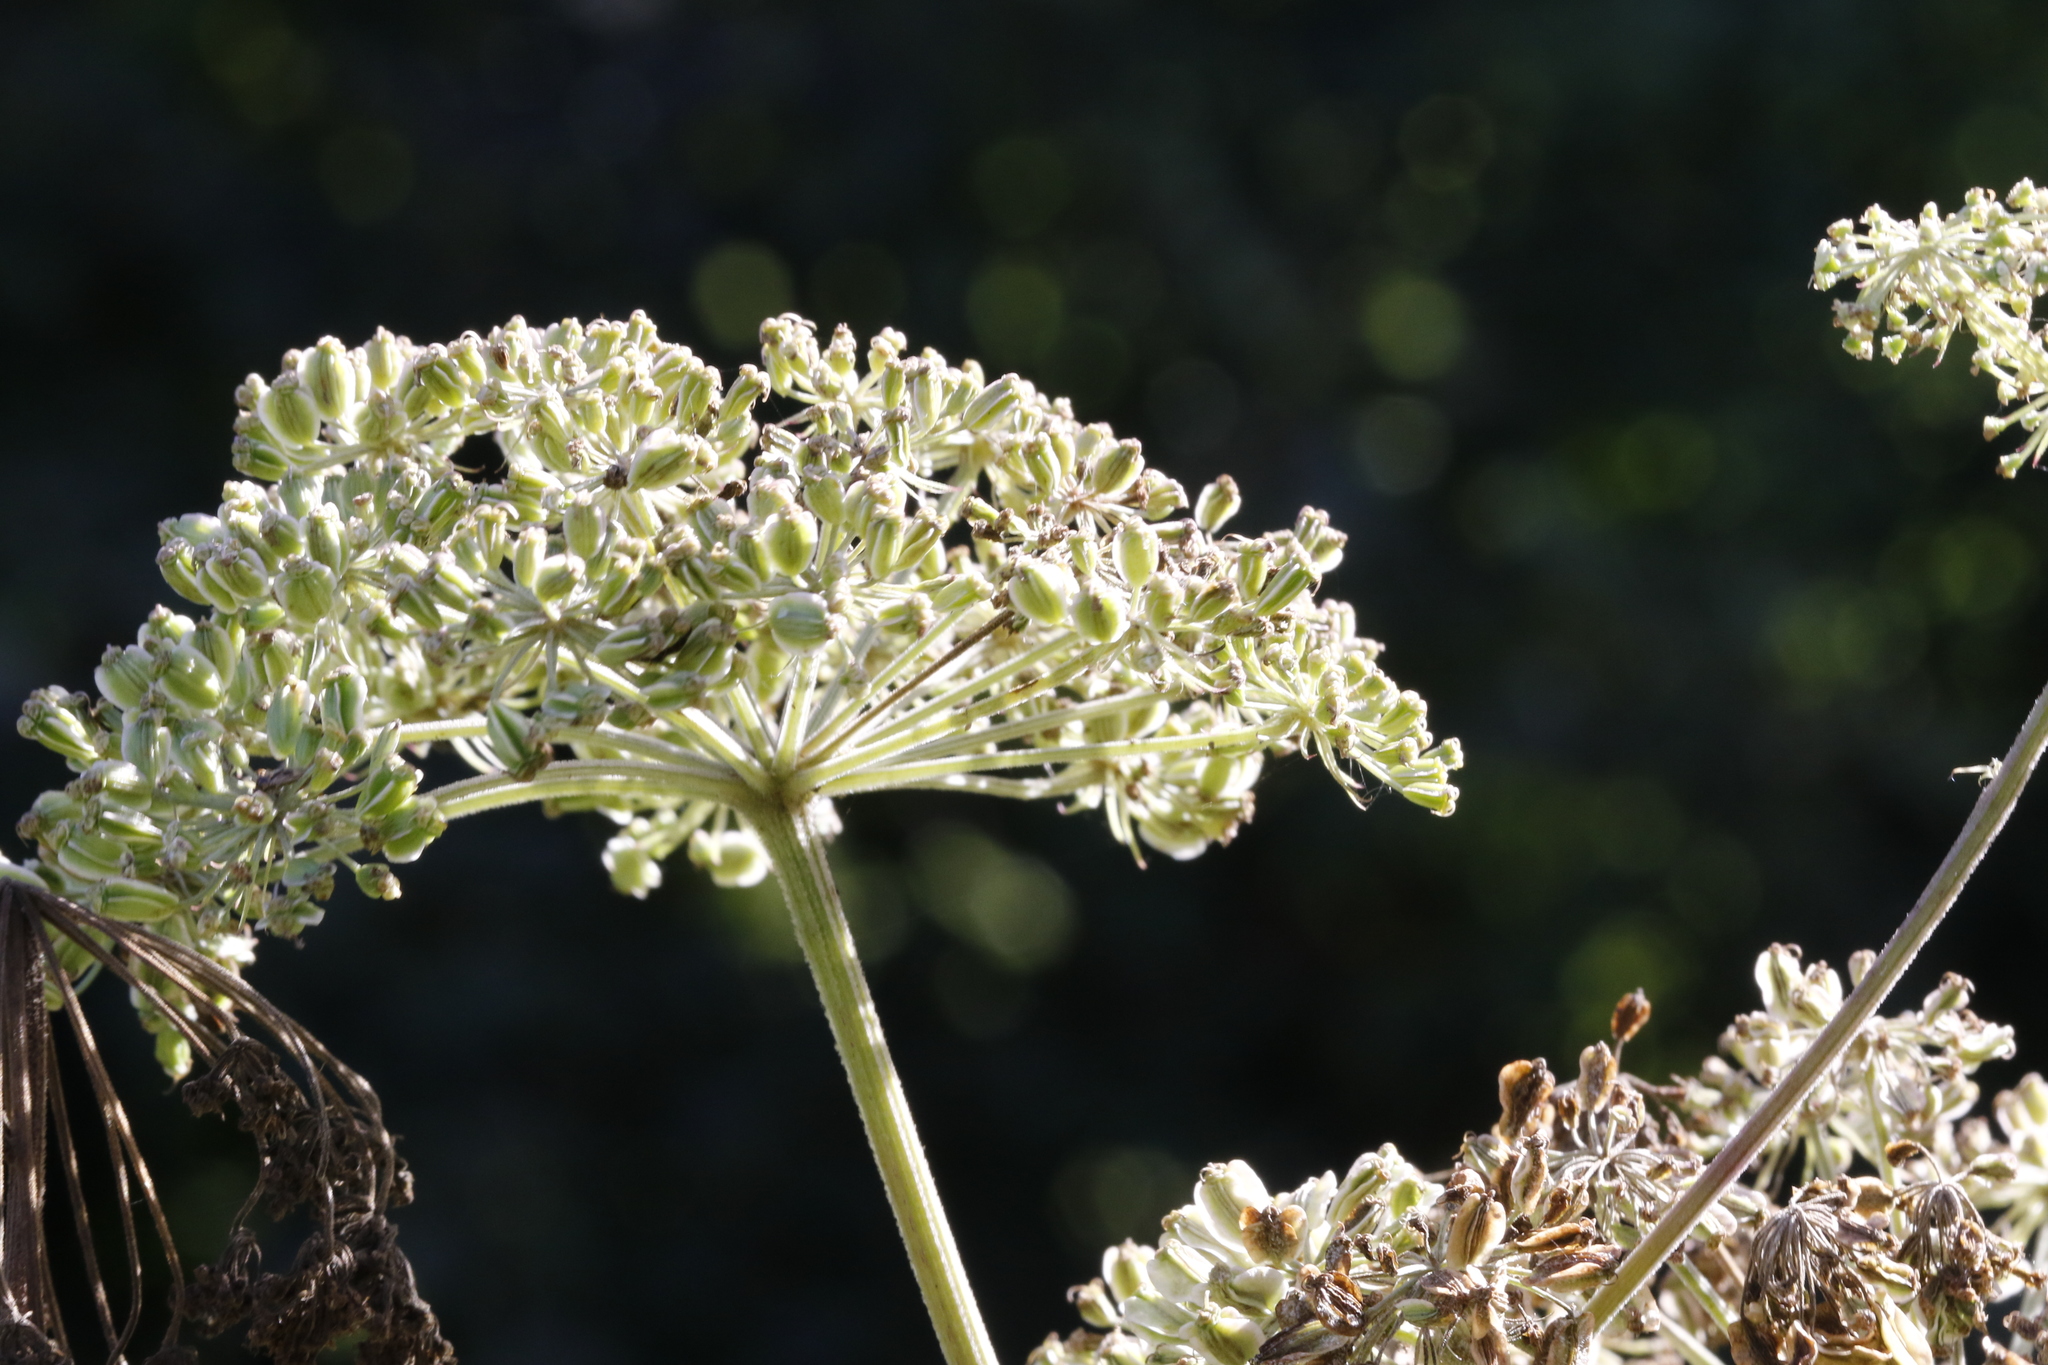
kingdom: Plantae
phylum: Tracheophyta
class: Magnoliopsida
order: Apiales
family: Apiaceae
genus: Angelica
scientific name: Angelica sylvestris
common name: Wild angelica
